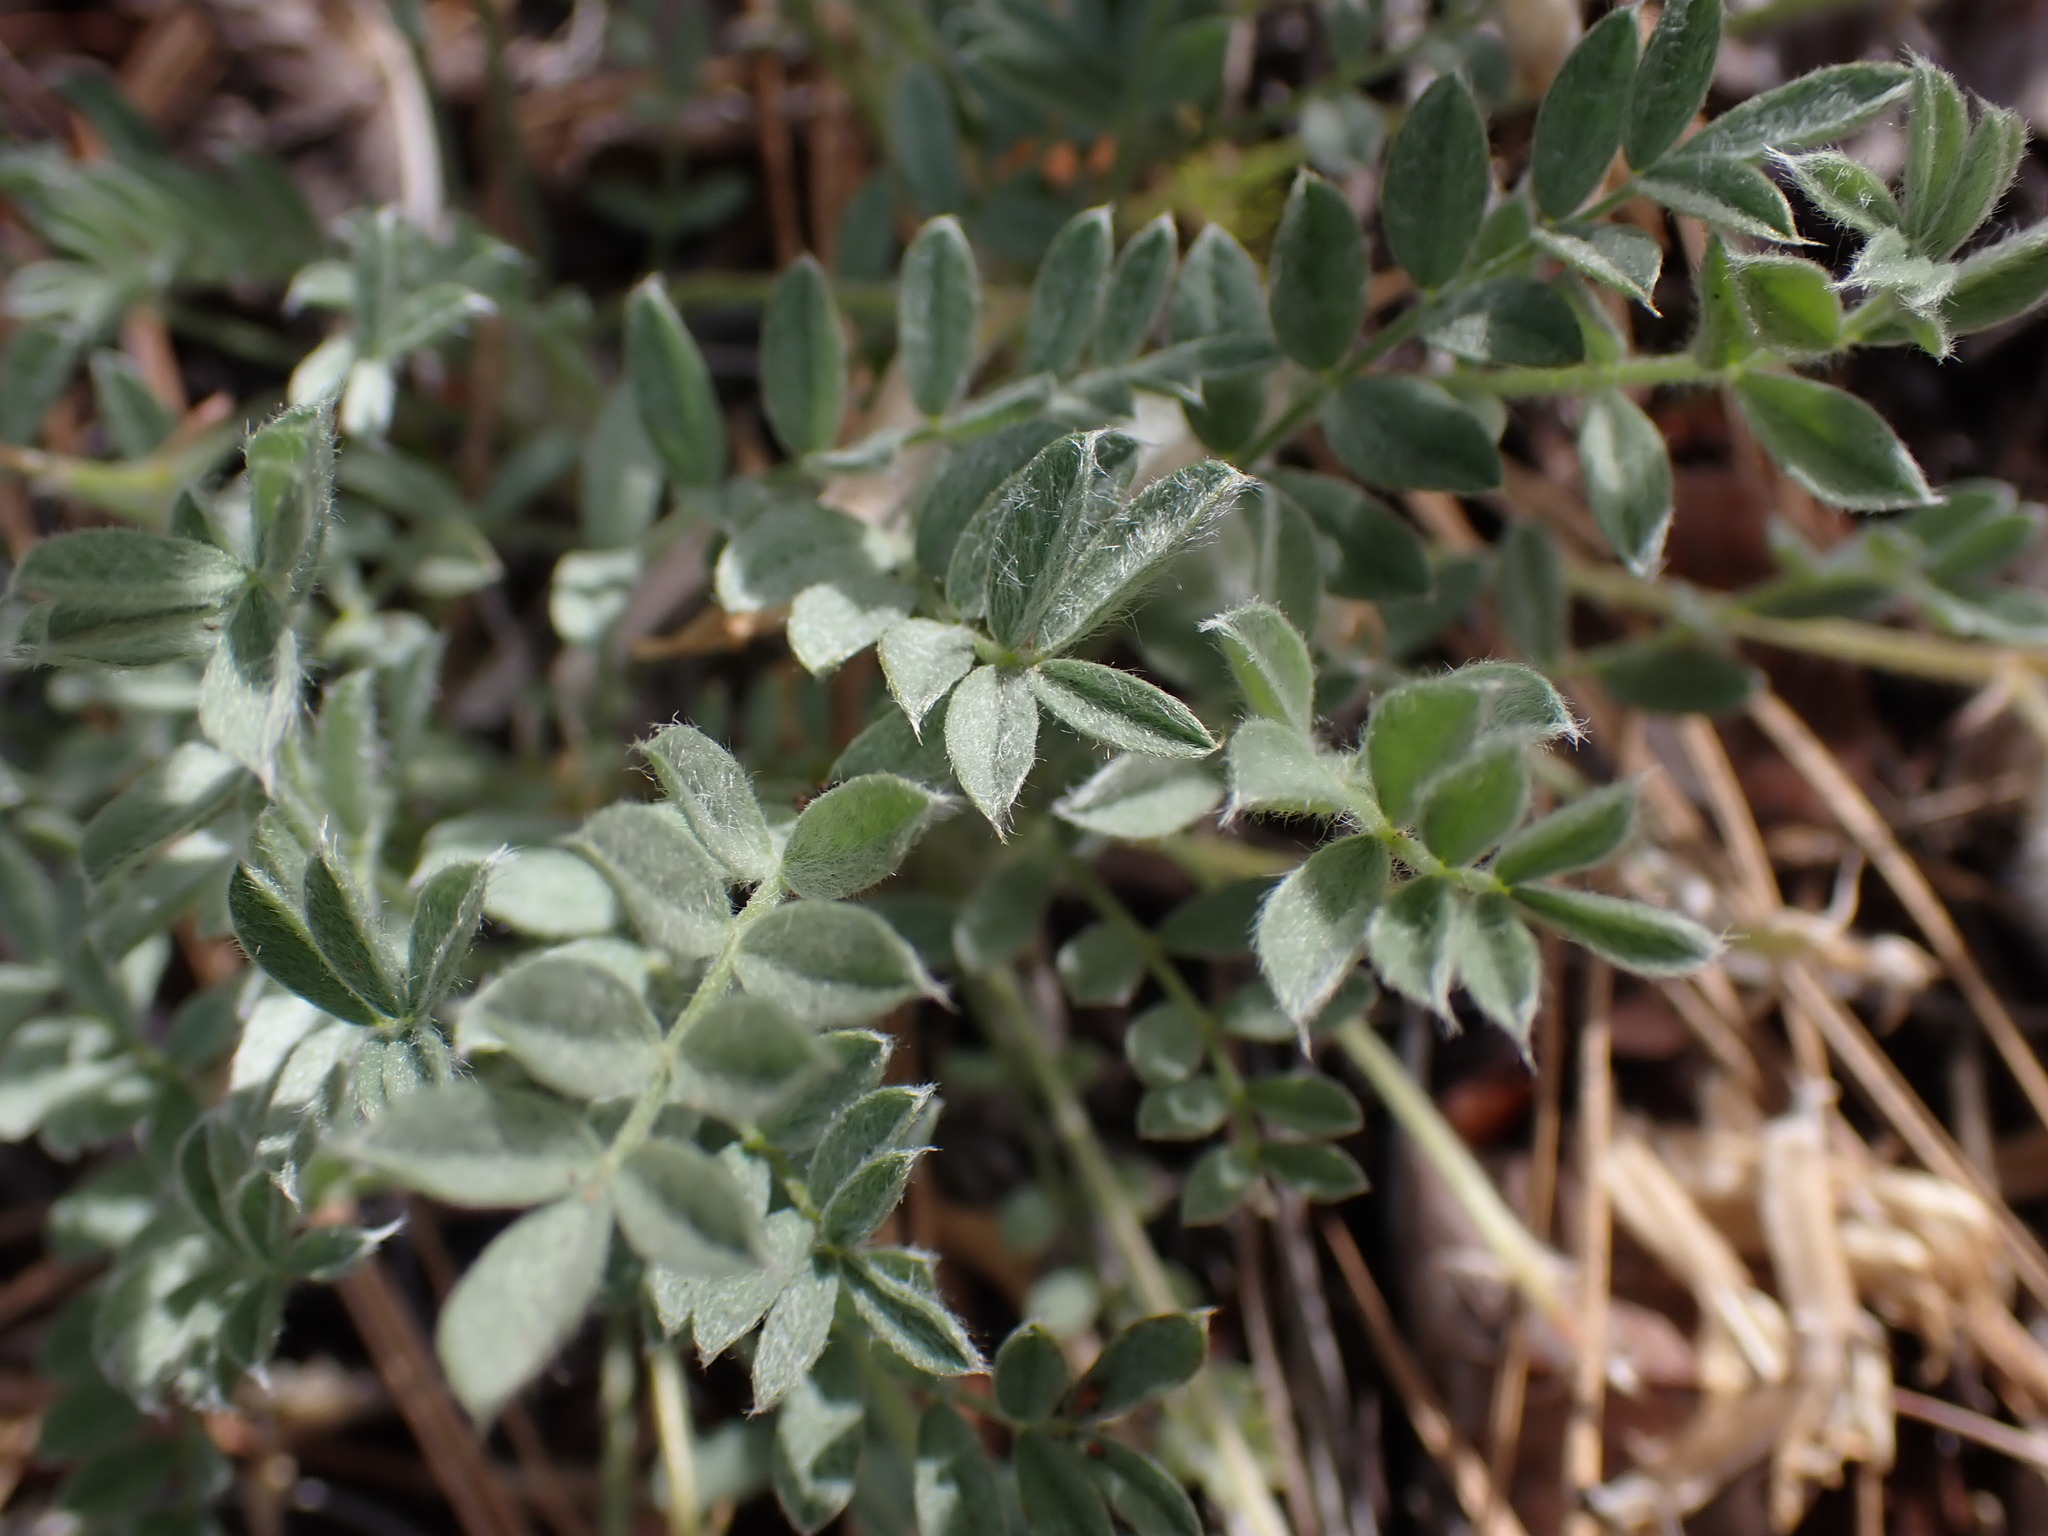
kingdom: Plantae
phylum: Tracheophyta
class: Magnoliopsida
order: Fabales
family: Fabaceae
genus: Astragalus
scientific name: Astragalus purshii
